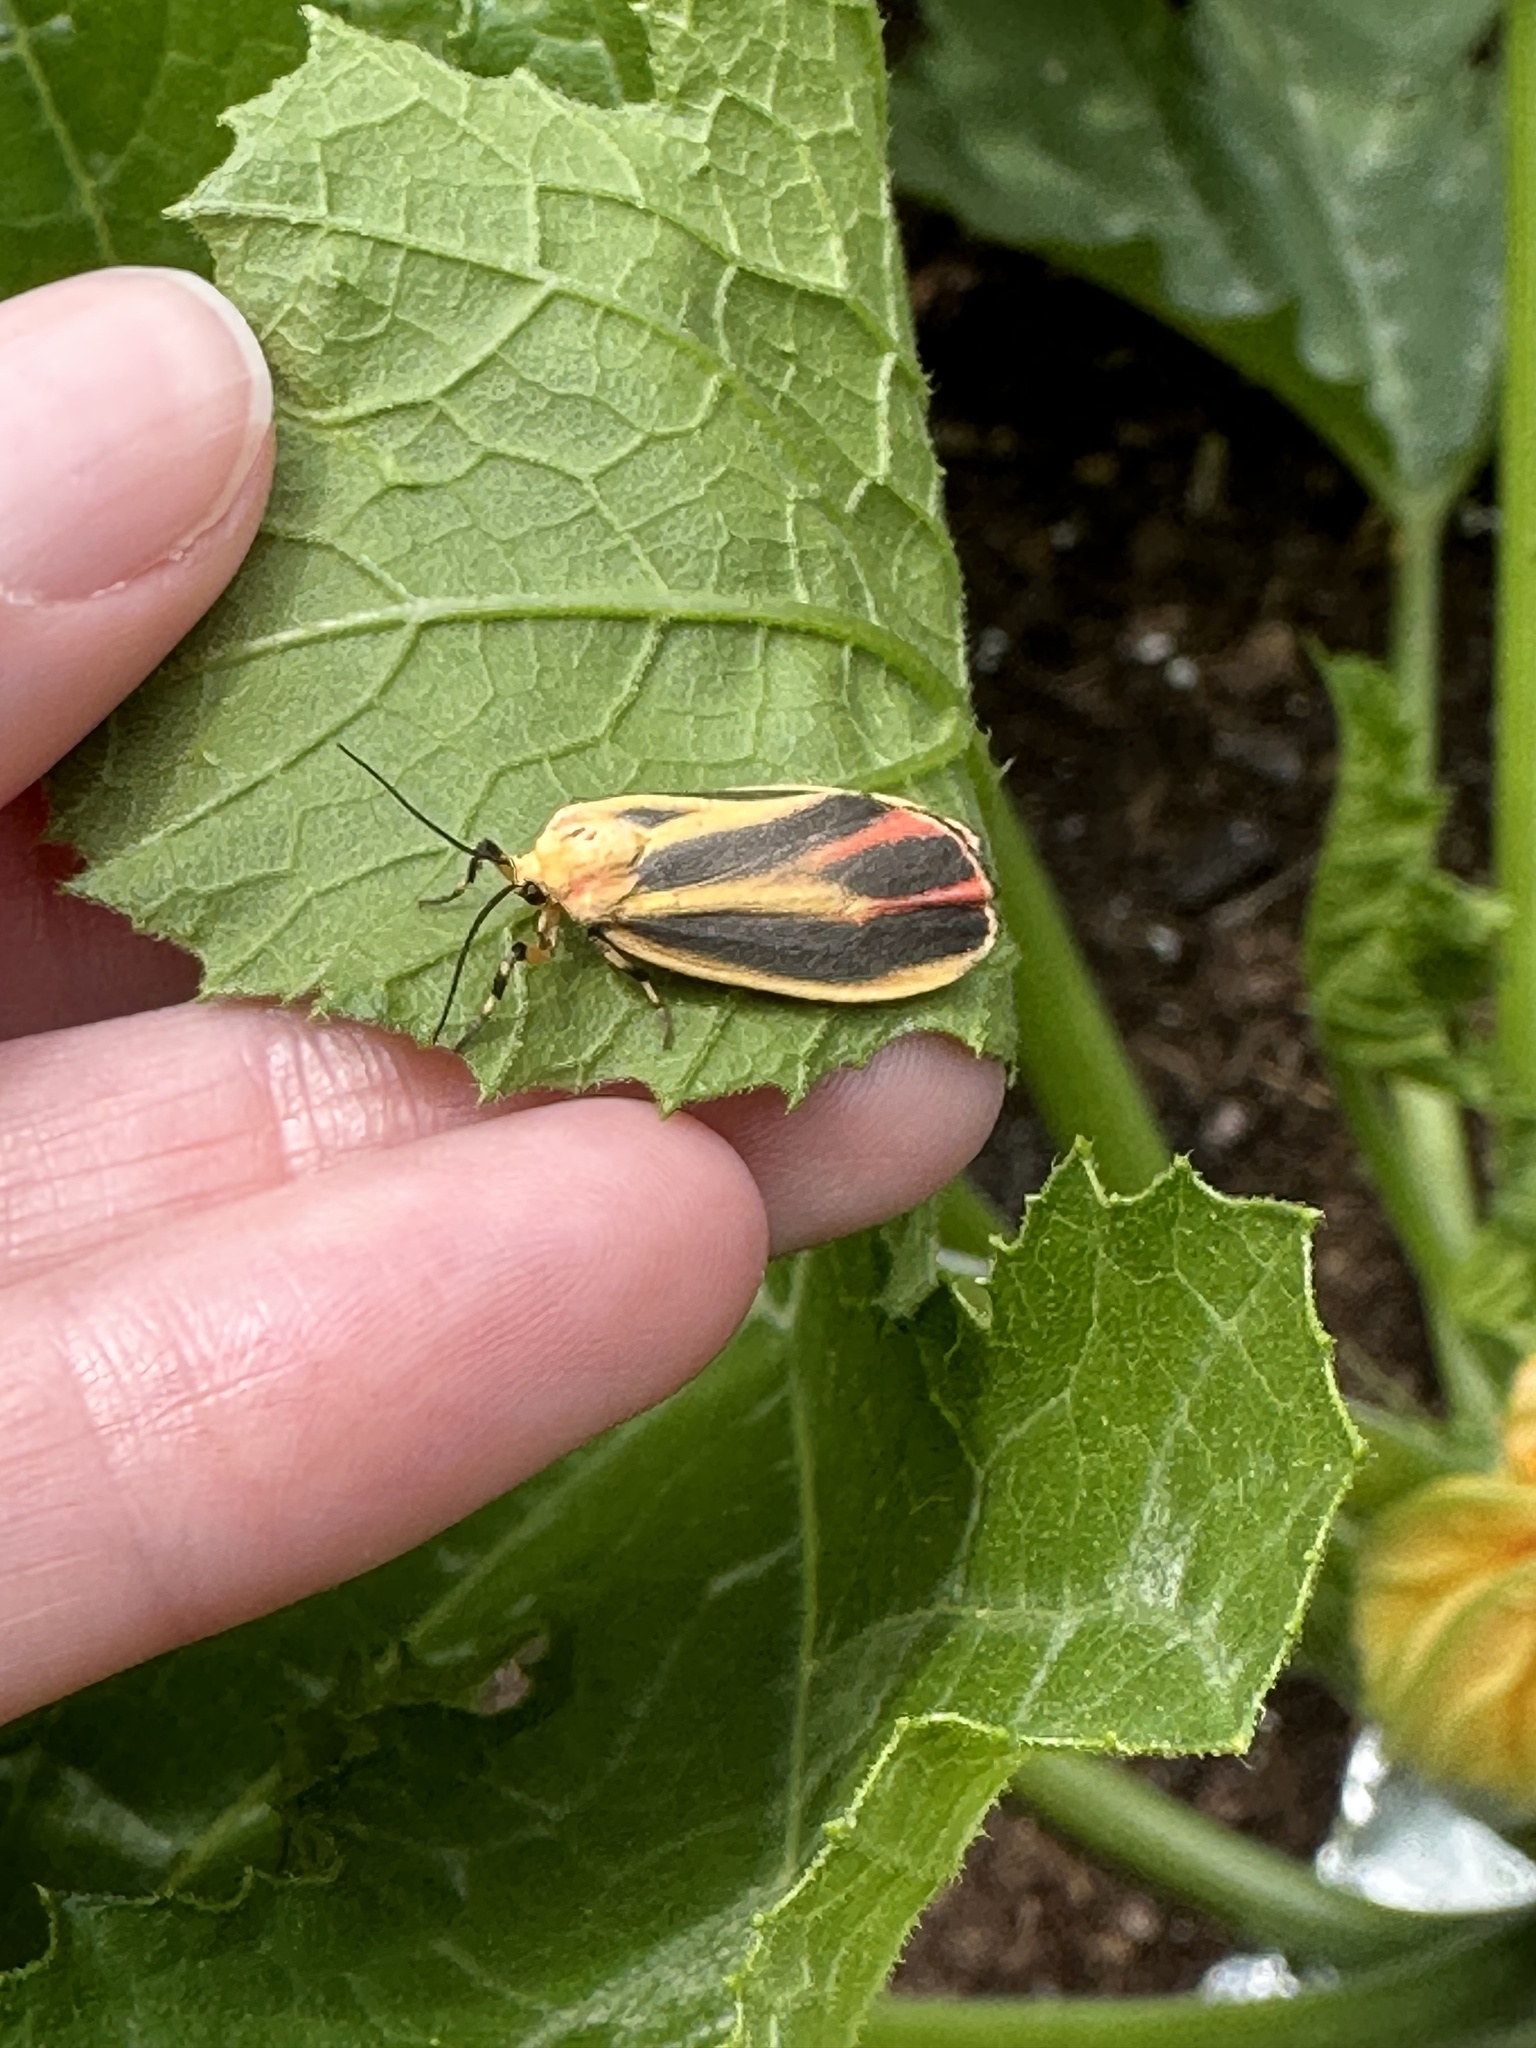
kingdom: Animalia
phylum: Arthropoda
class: Insecta
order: Lepidoptera
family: Erebidae
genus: Hypoprepia
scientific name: Hypoprepia fucosa
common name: Painted lichen moth
